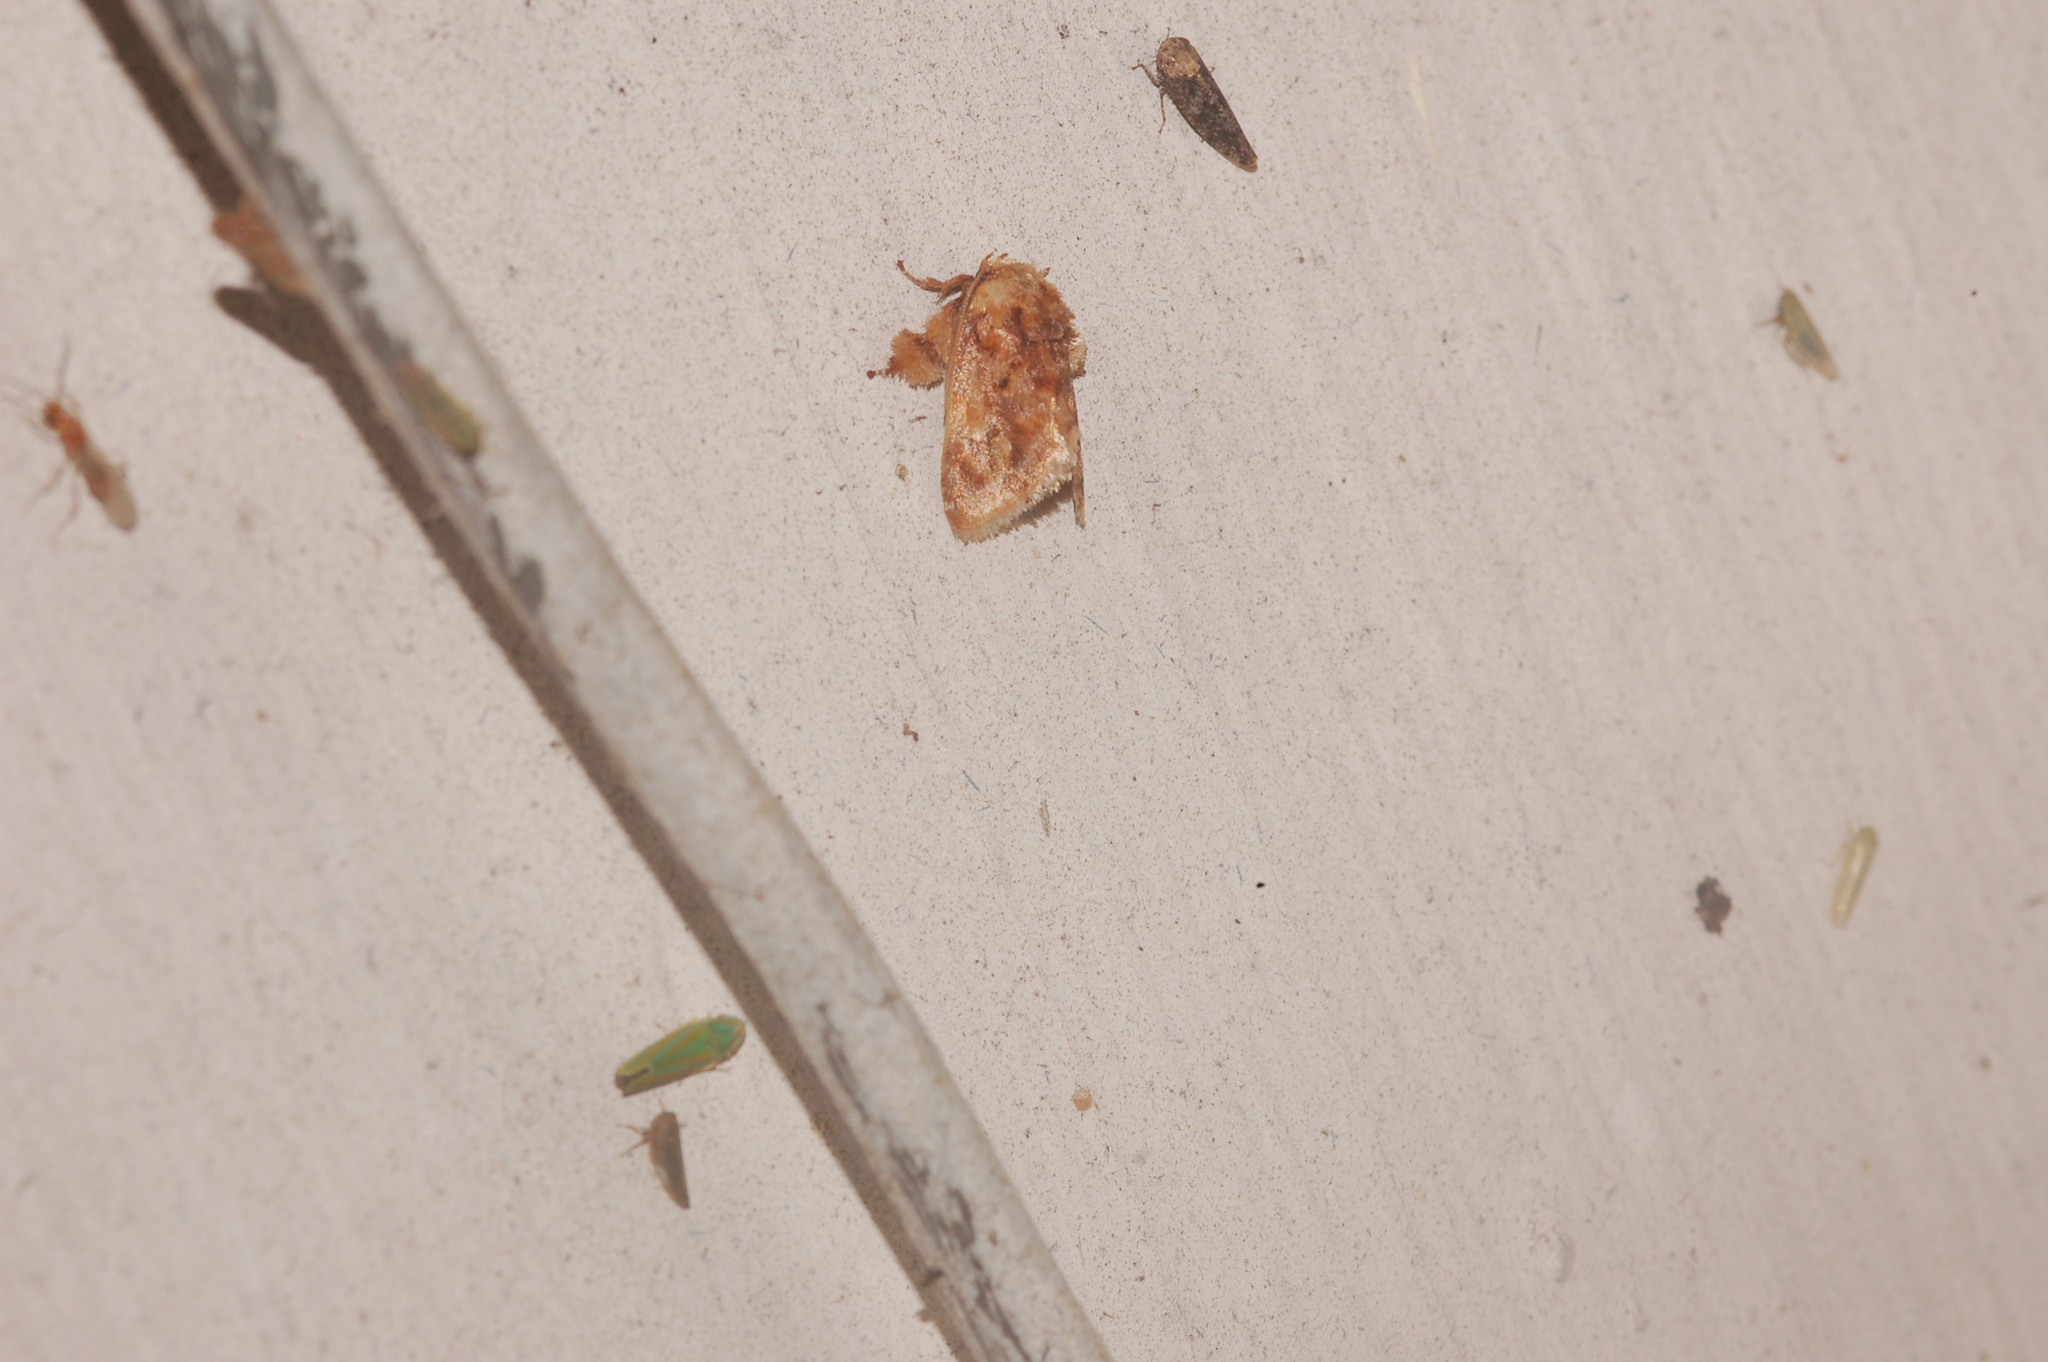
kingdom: Animalia
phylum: Arthropoda
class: Insecta
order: Lepidoptera
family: Limacodidae
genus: Isochaetes
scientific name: Isochaetes beutenmuelleri
